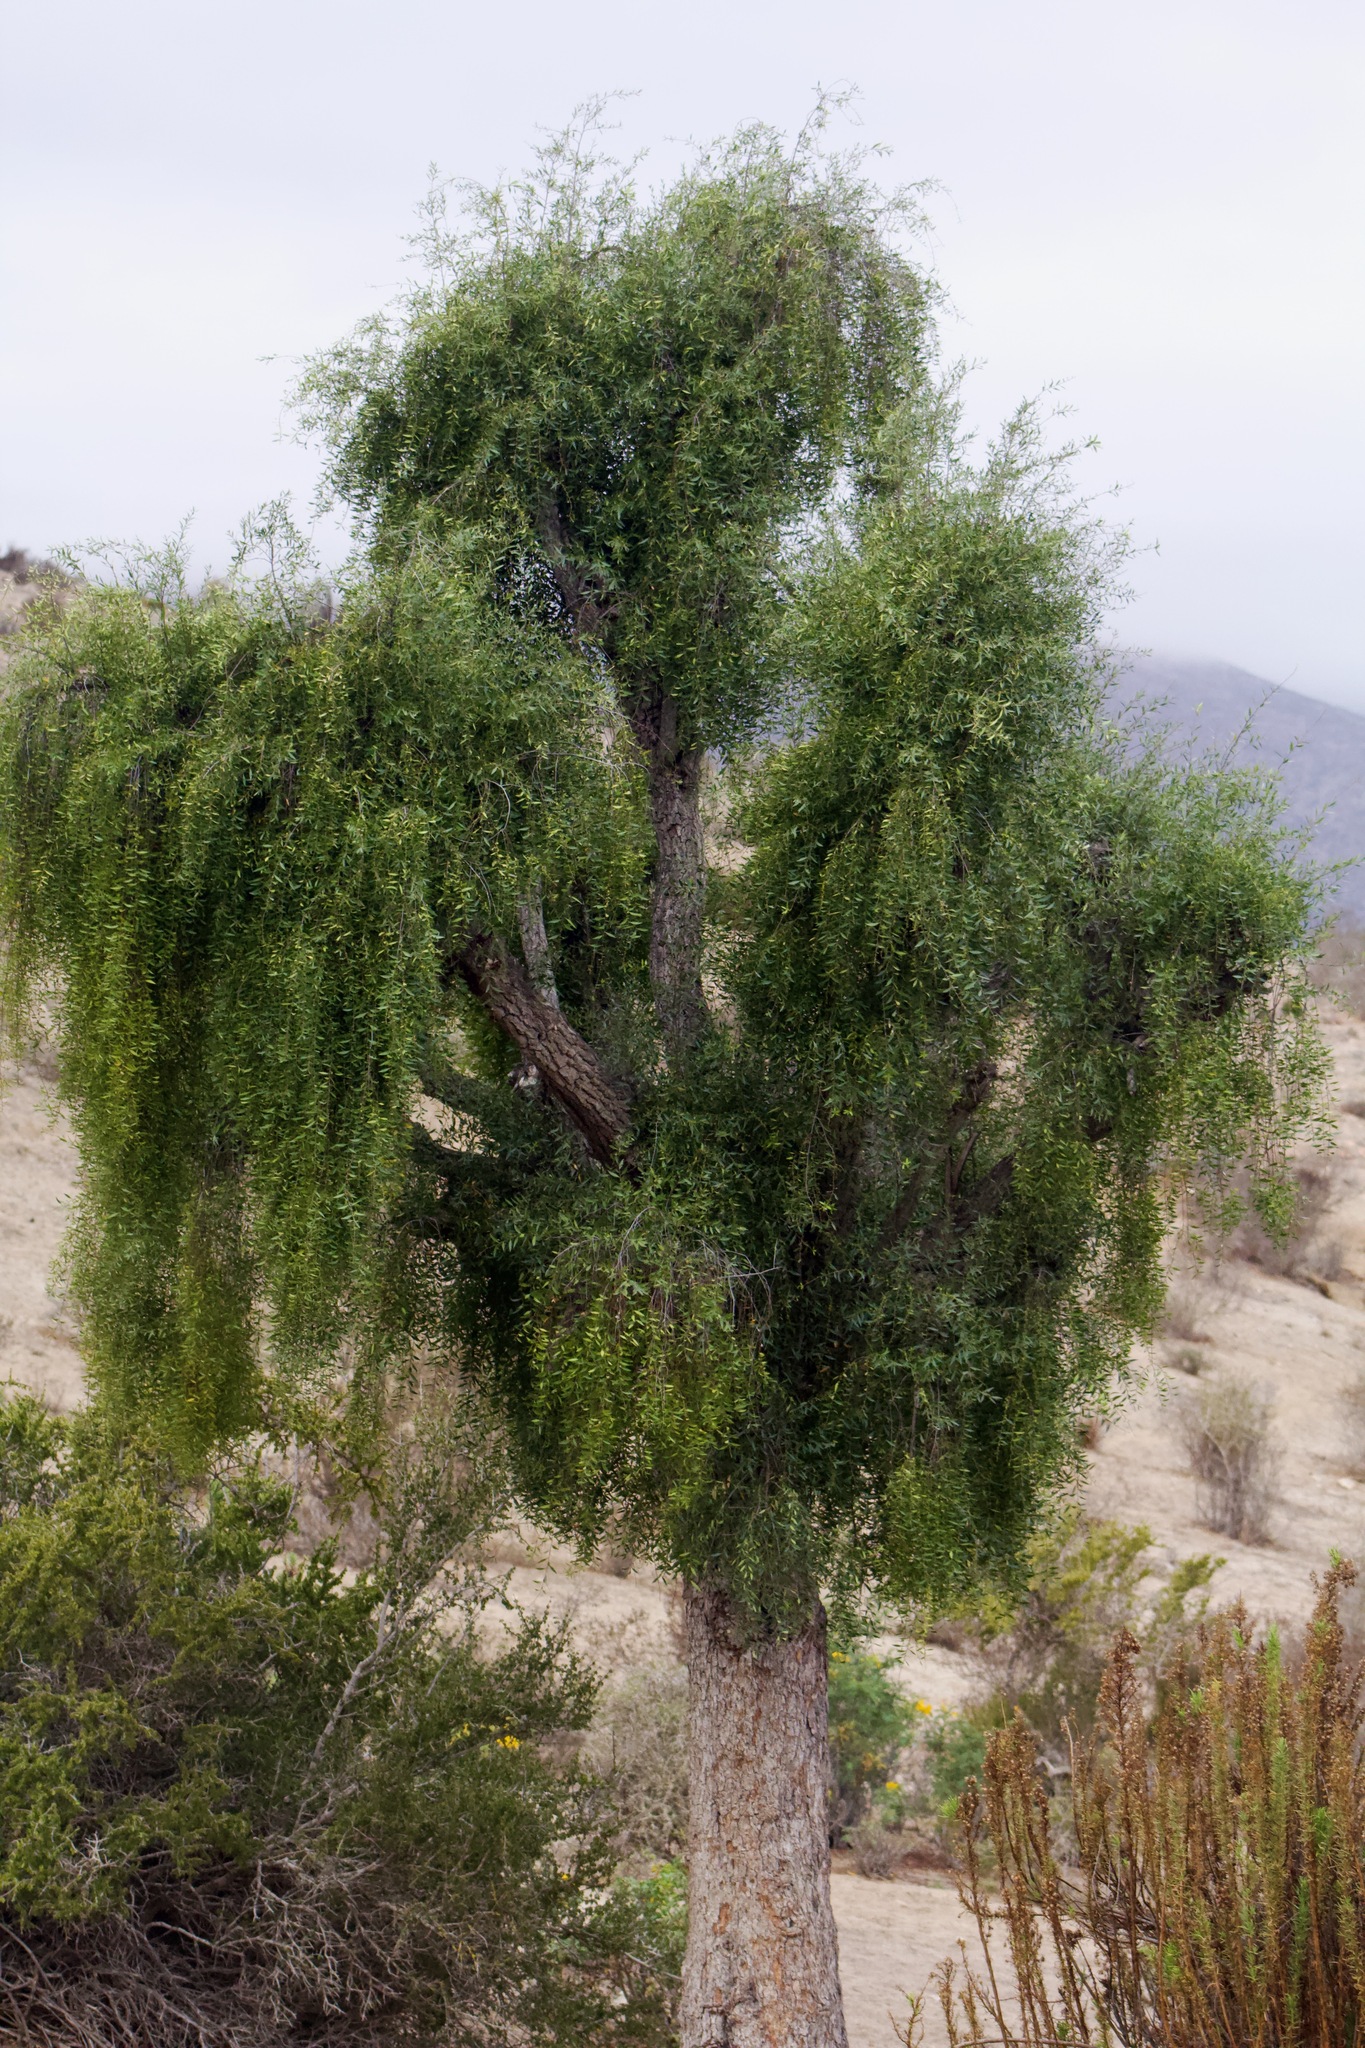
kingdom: Plantae
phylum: Tracheophyta
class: Magnoliopsida
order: Celastrales
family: Celastraceae
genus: Maytenus
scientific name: Maytenus boaria
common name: Mayten
